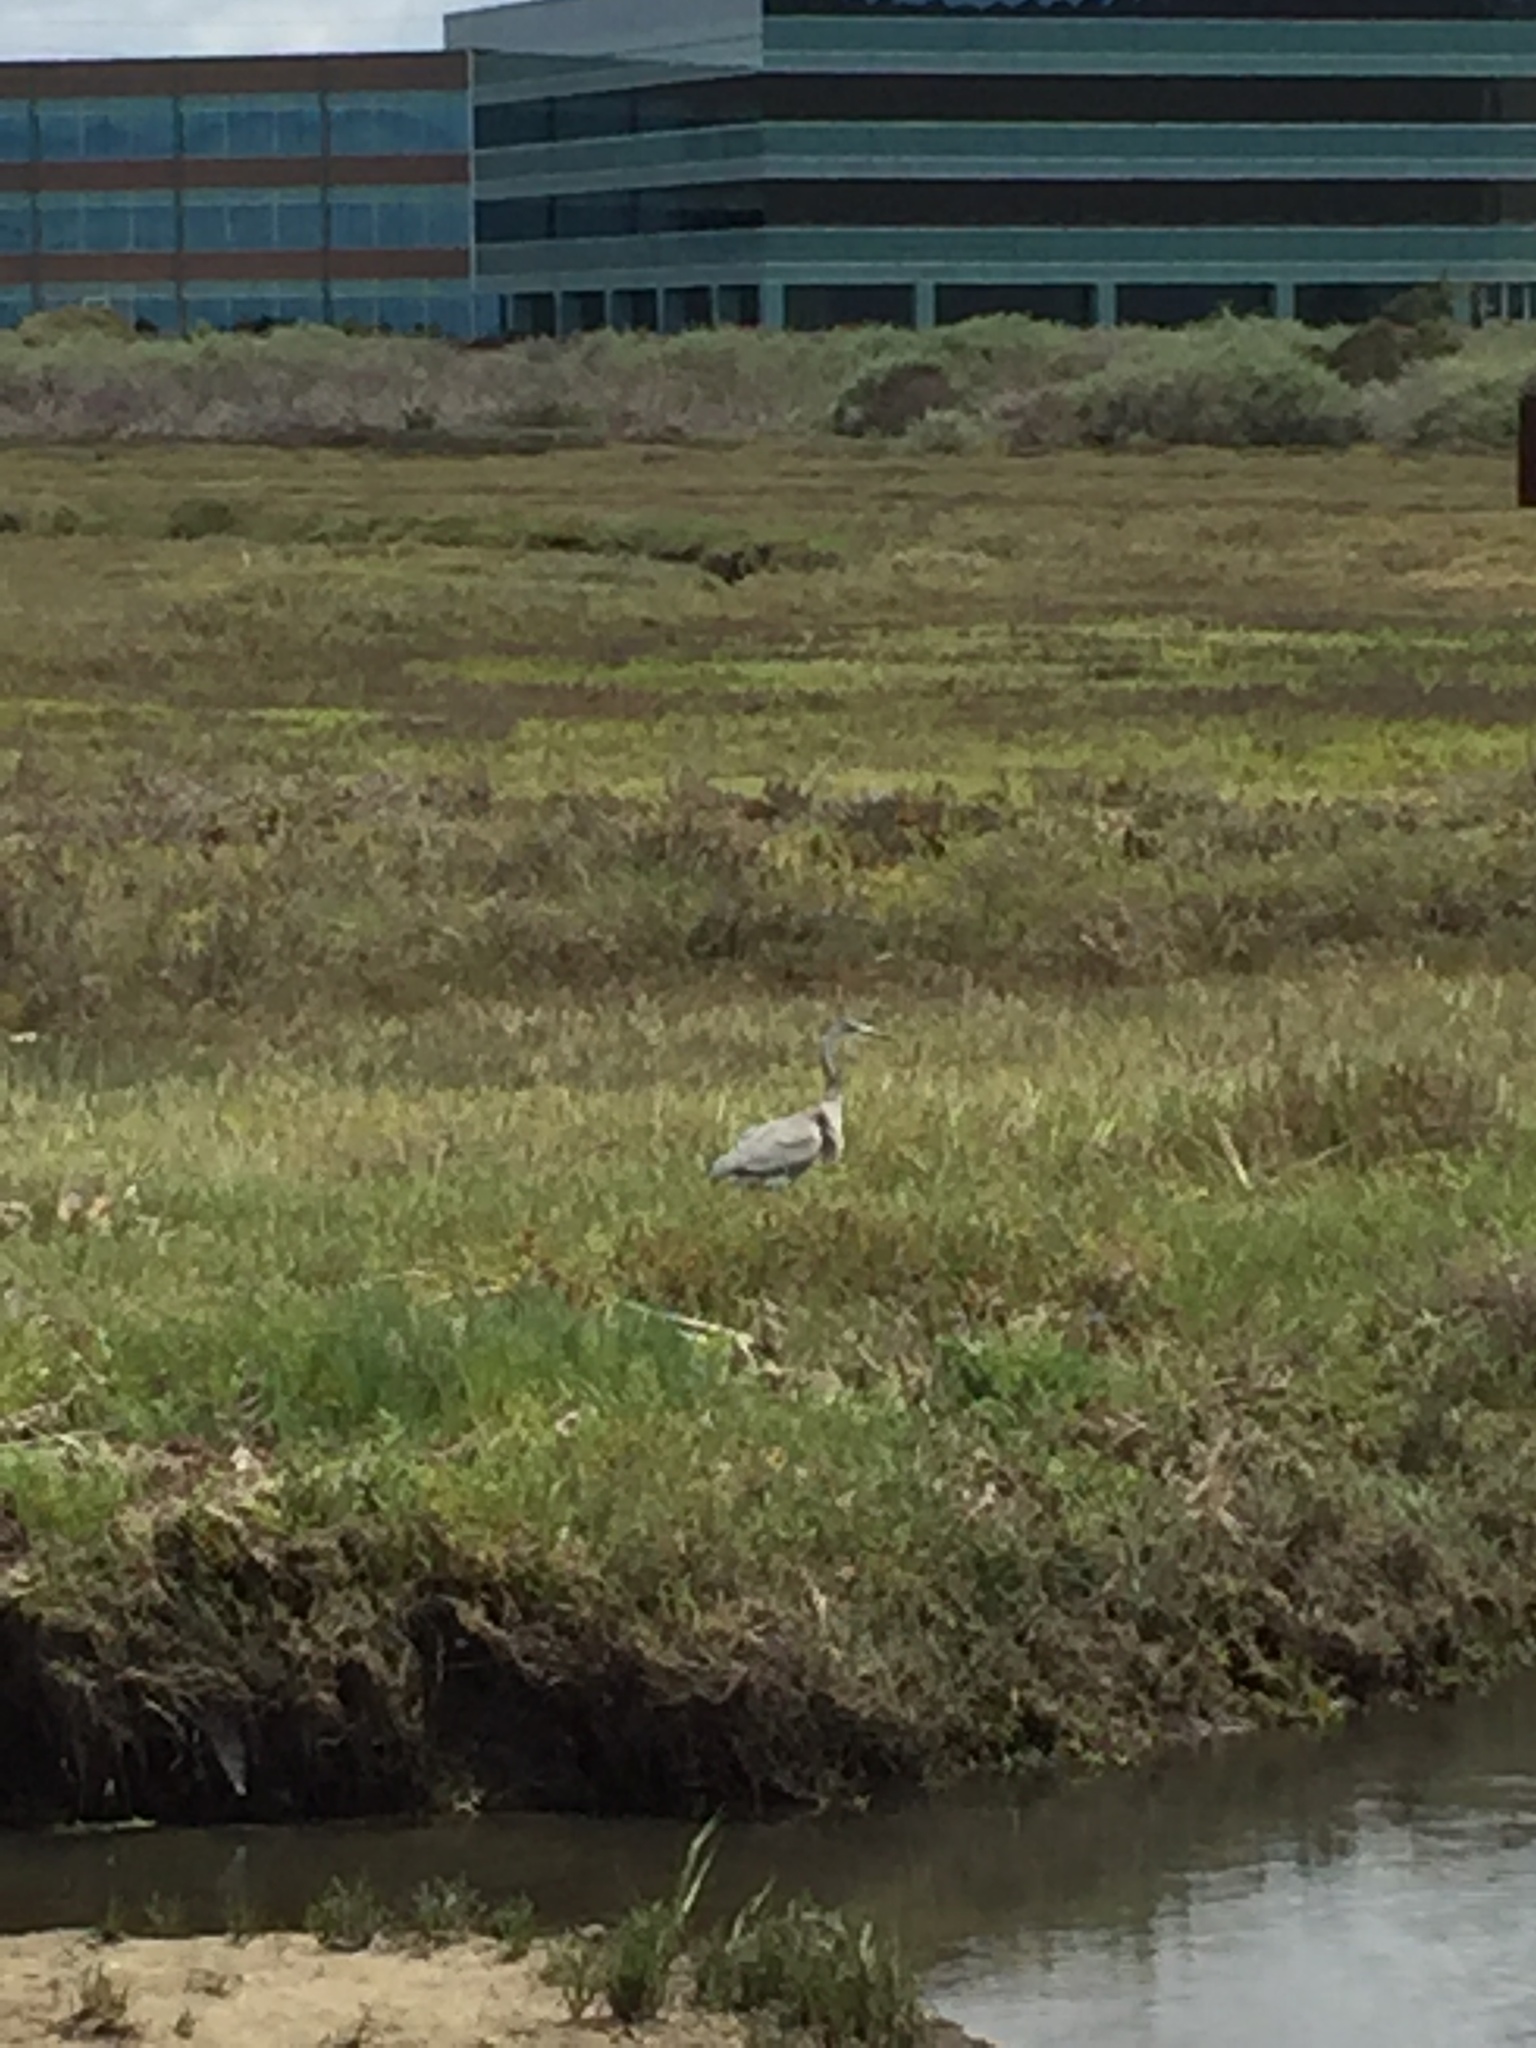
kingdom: Animalia
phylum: Chordata
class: Aves
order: Pelecaniformes
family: Ardeidae
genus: Ardea
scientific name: Ardea herodias
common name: Great blue heron
